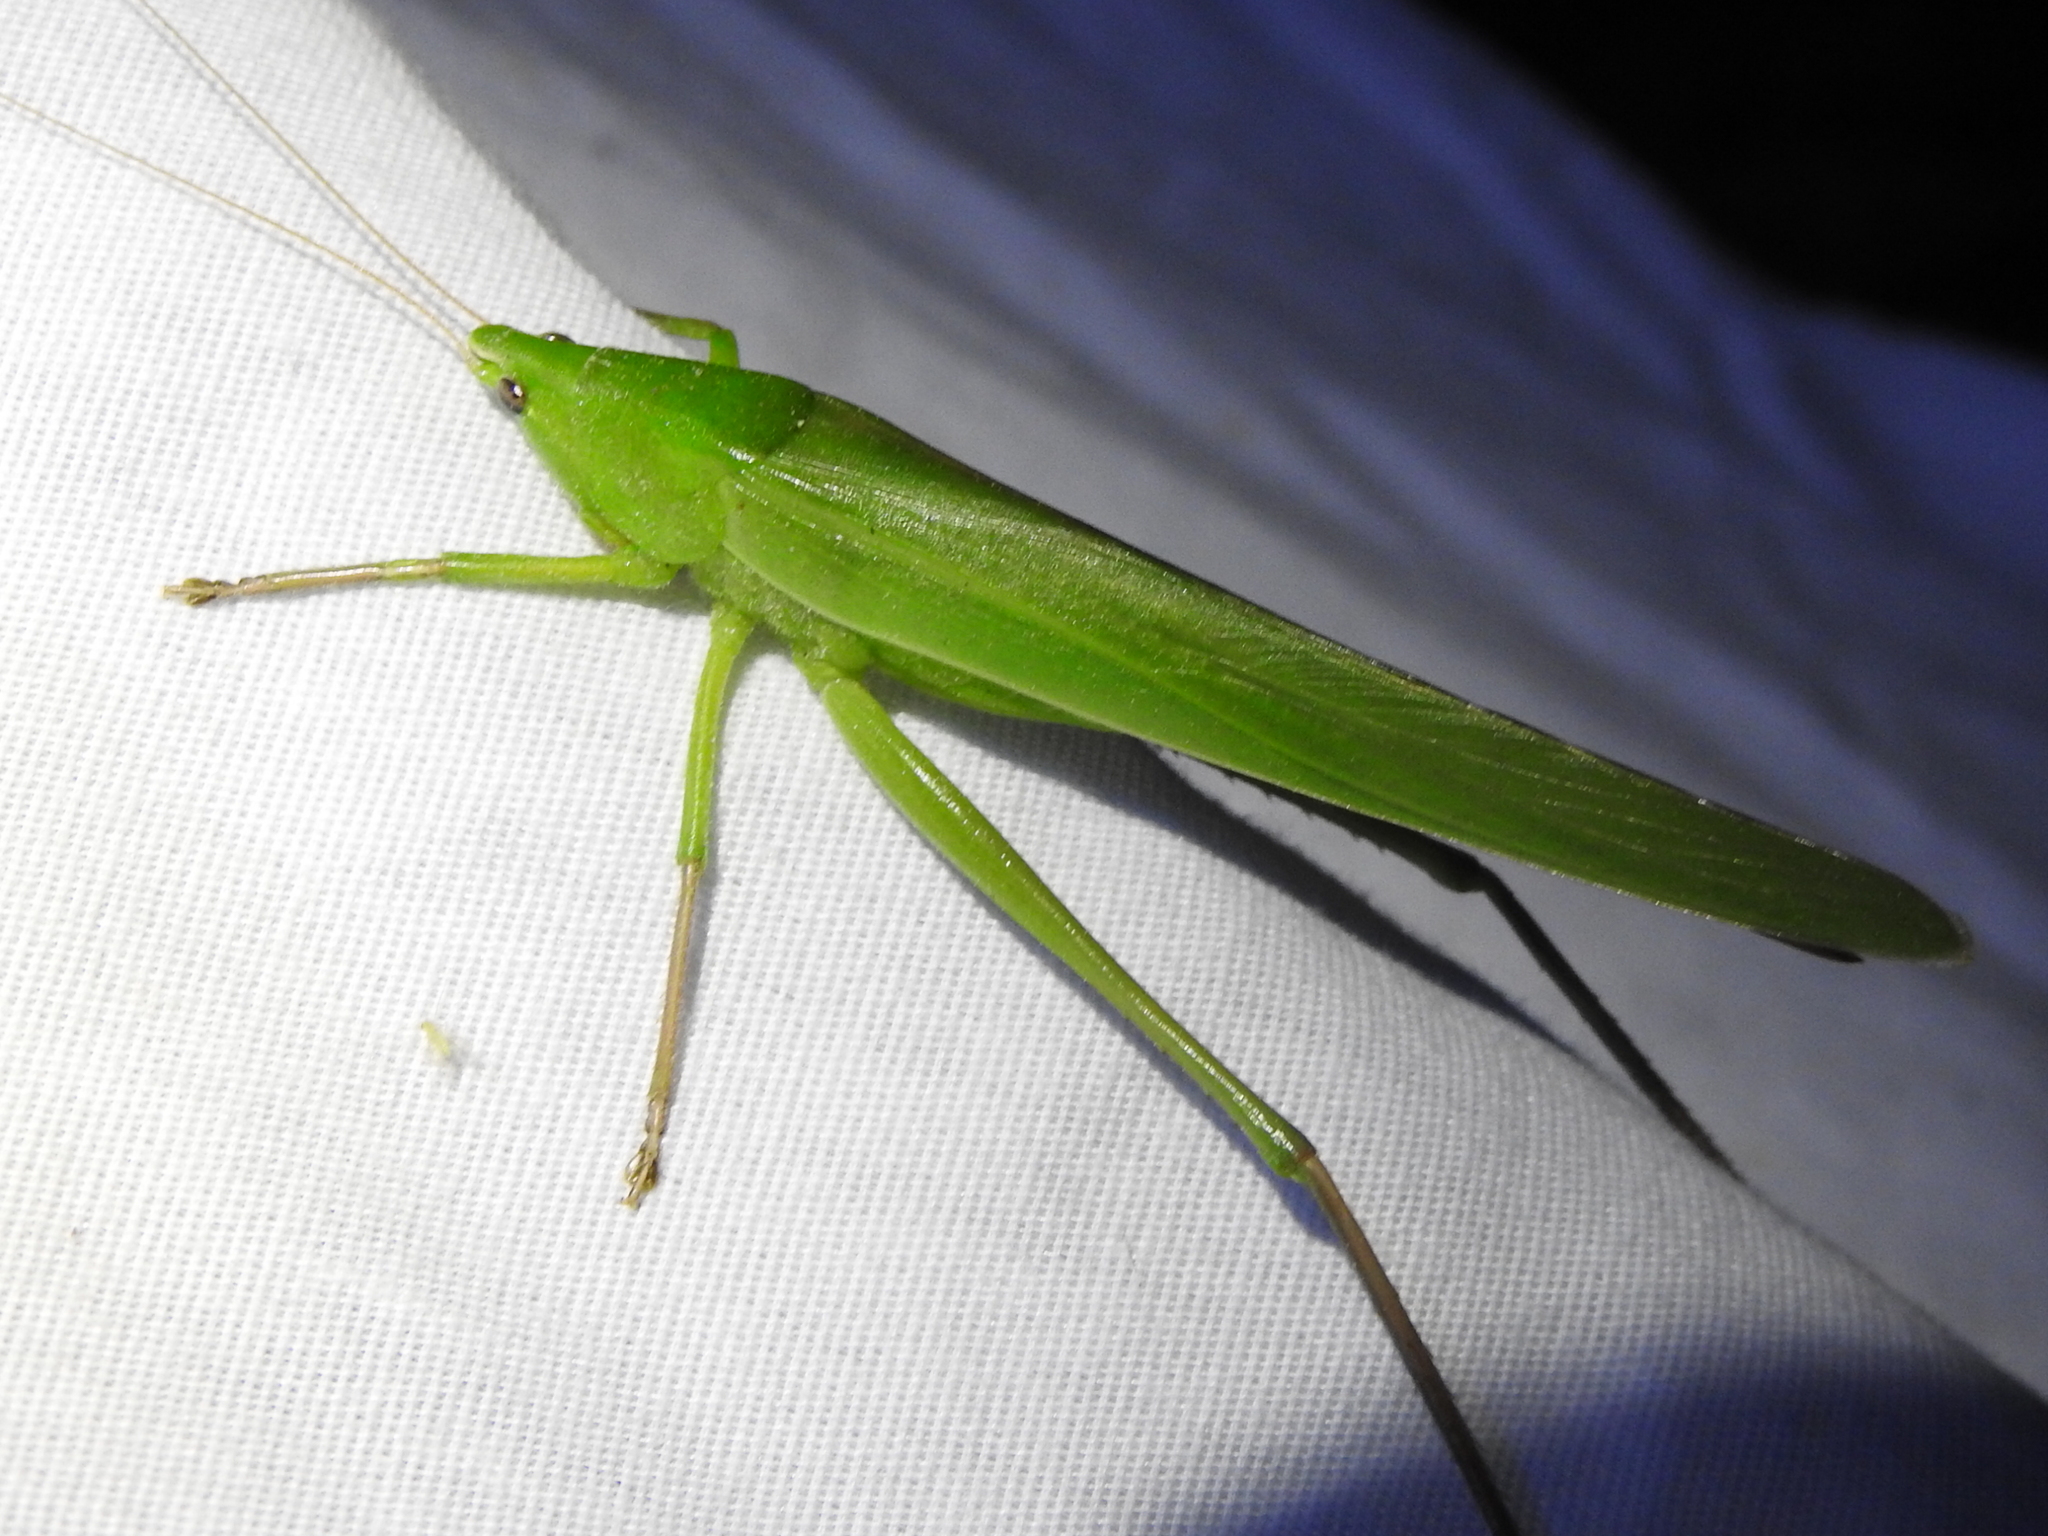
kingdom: Animalia
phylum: Arthropoda
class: Insecta
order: Orthoptera
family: Tettigoniidae
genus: Neoconocephalus
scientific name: Neoconocephalus triops
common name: Broad-tipped conehead
